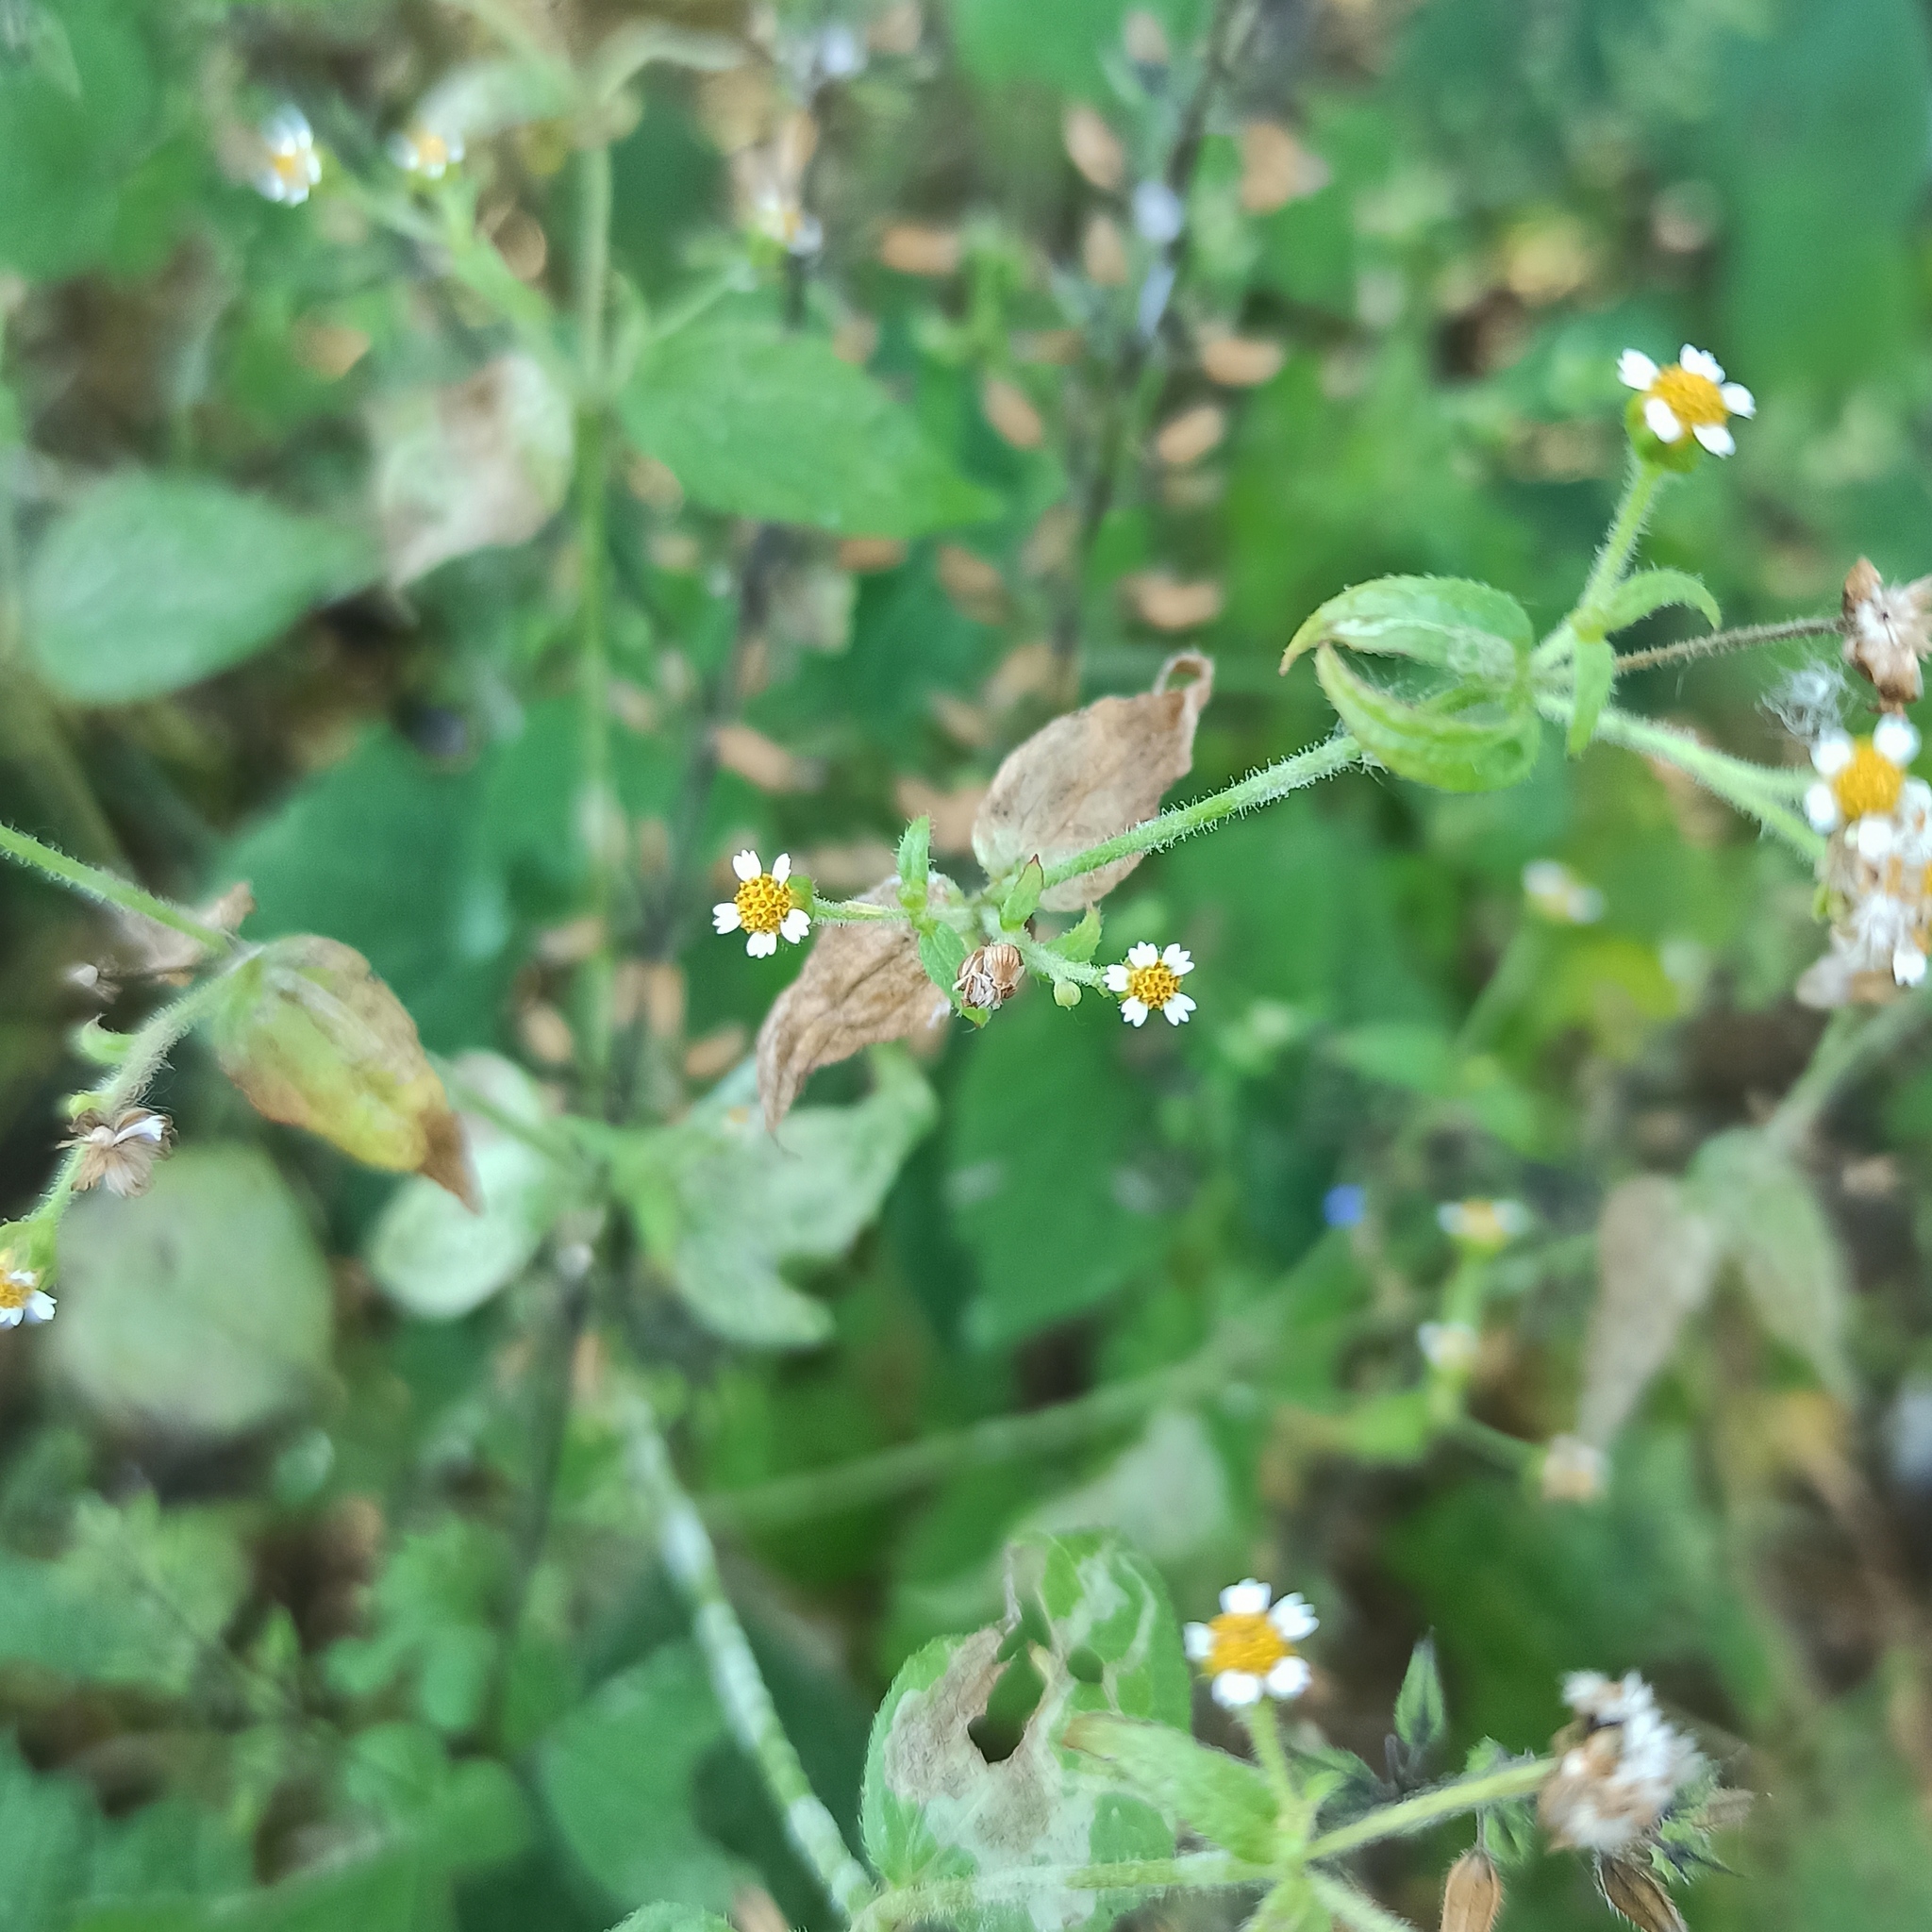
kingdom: Plantae
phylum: Tracheophyta
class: Magnoliopsida
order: Asterales
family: Asteraceae
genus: Galinsoga
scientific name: Galinsoga quadriradiata
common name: Shaggy soldier
